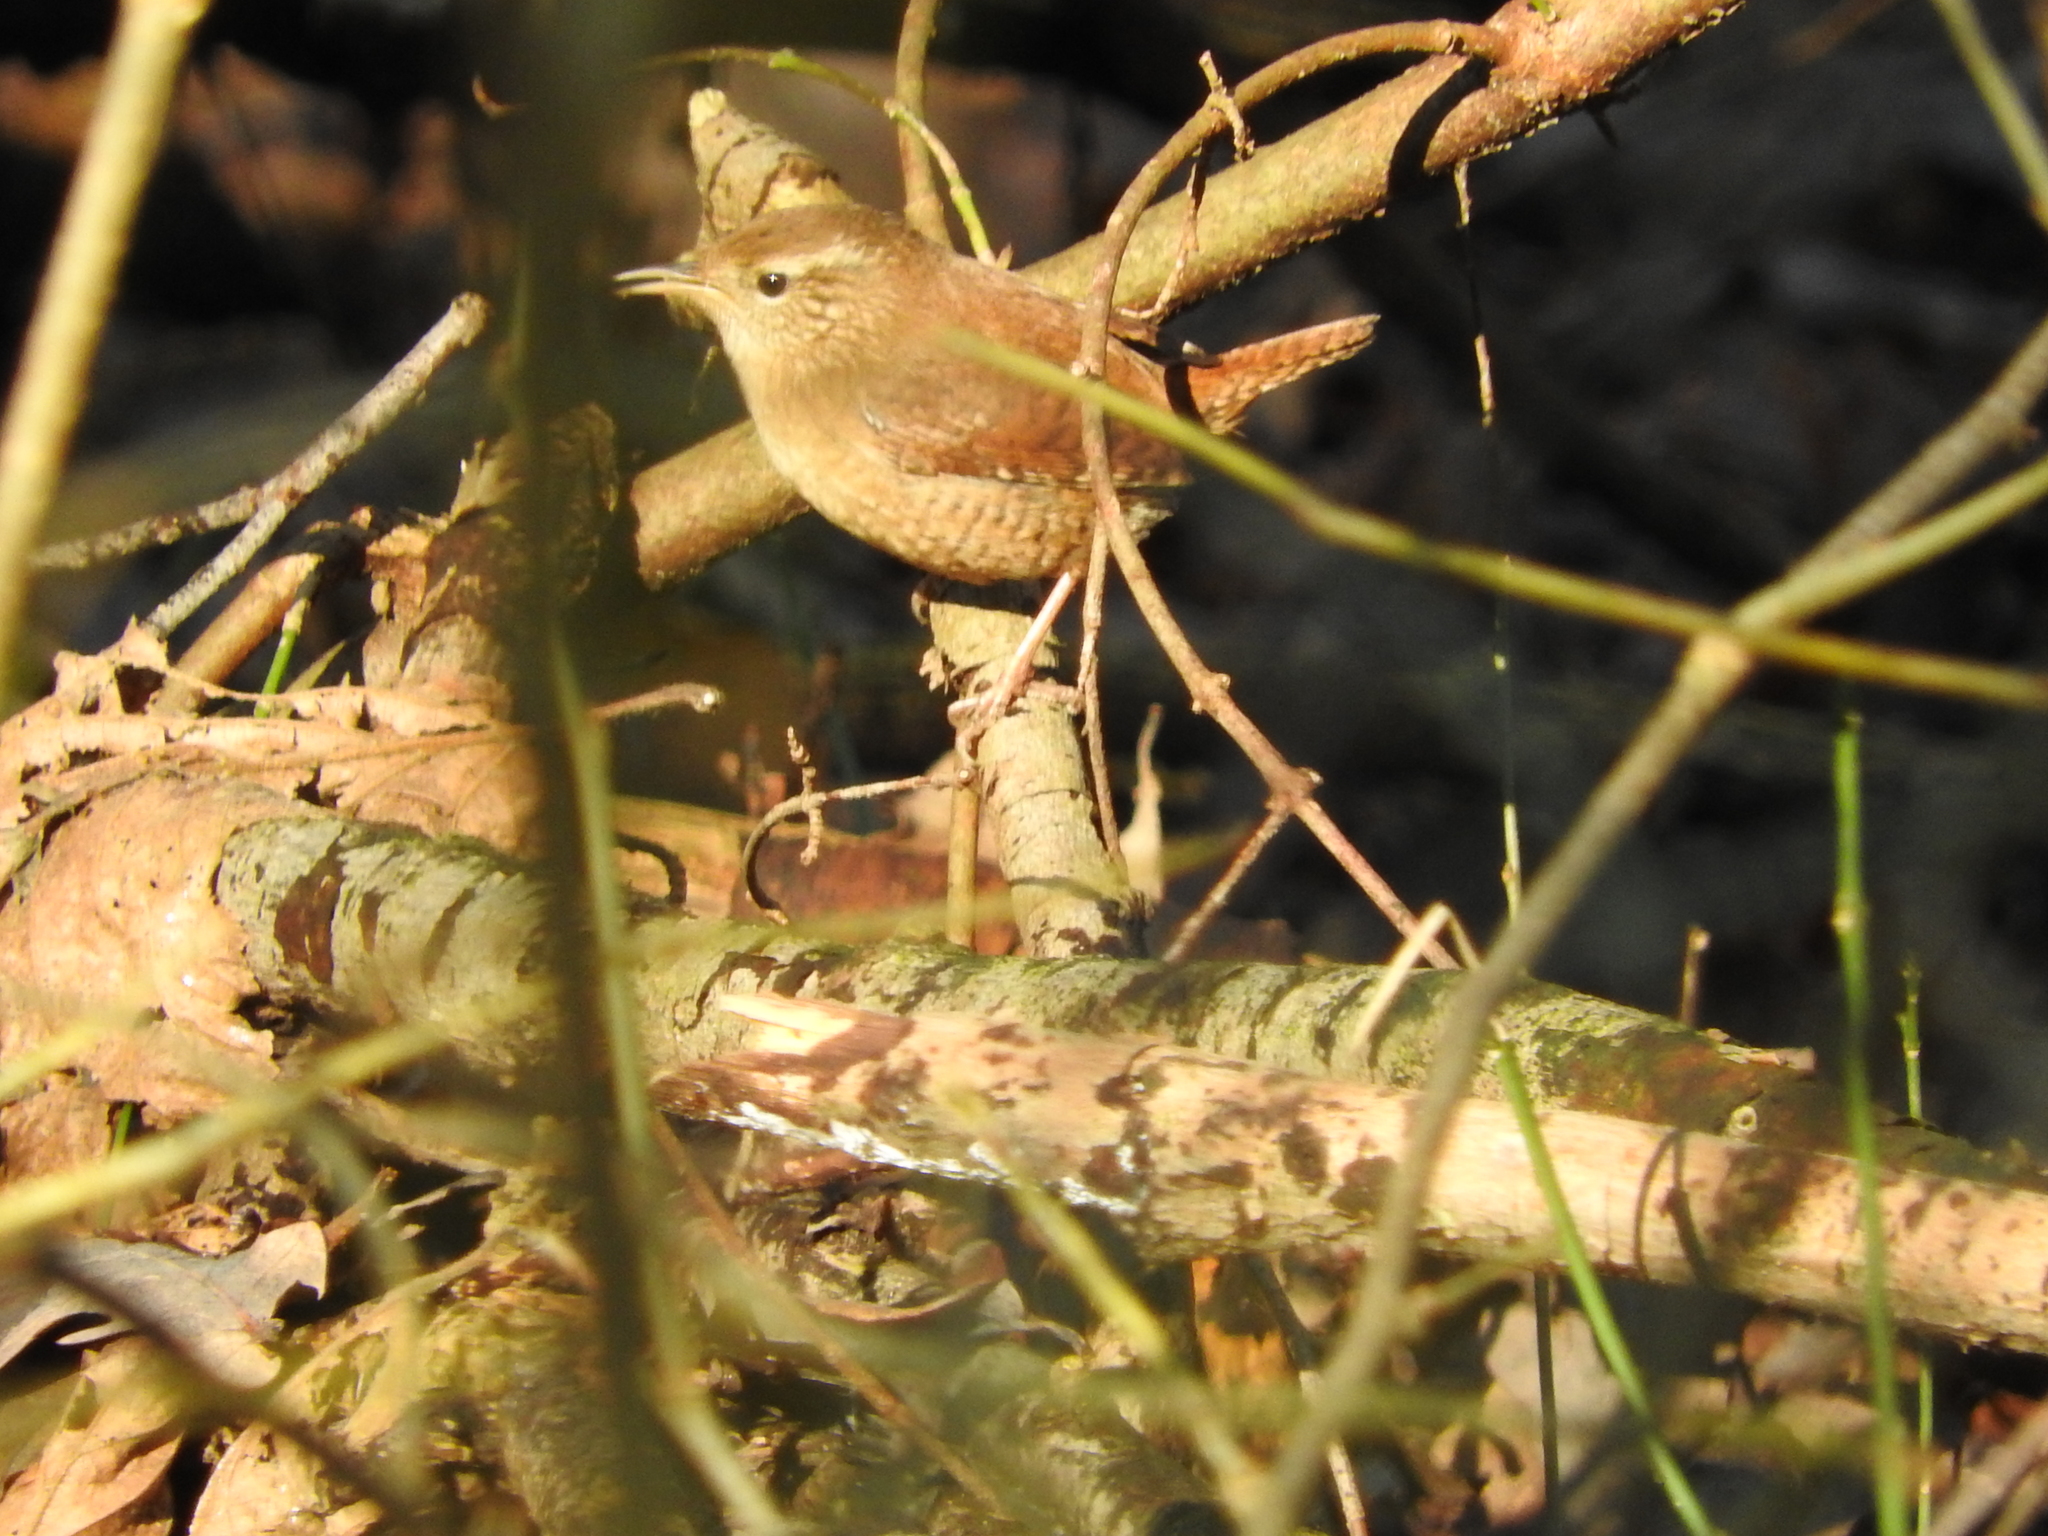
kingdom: Animalia
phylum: Chordata
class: Aves
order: Passeriformes
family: Troglodytidae
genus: Troglodytes
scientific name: Troglodytes troglodytes
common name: Eurasian wren
